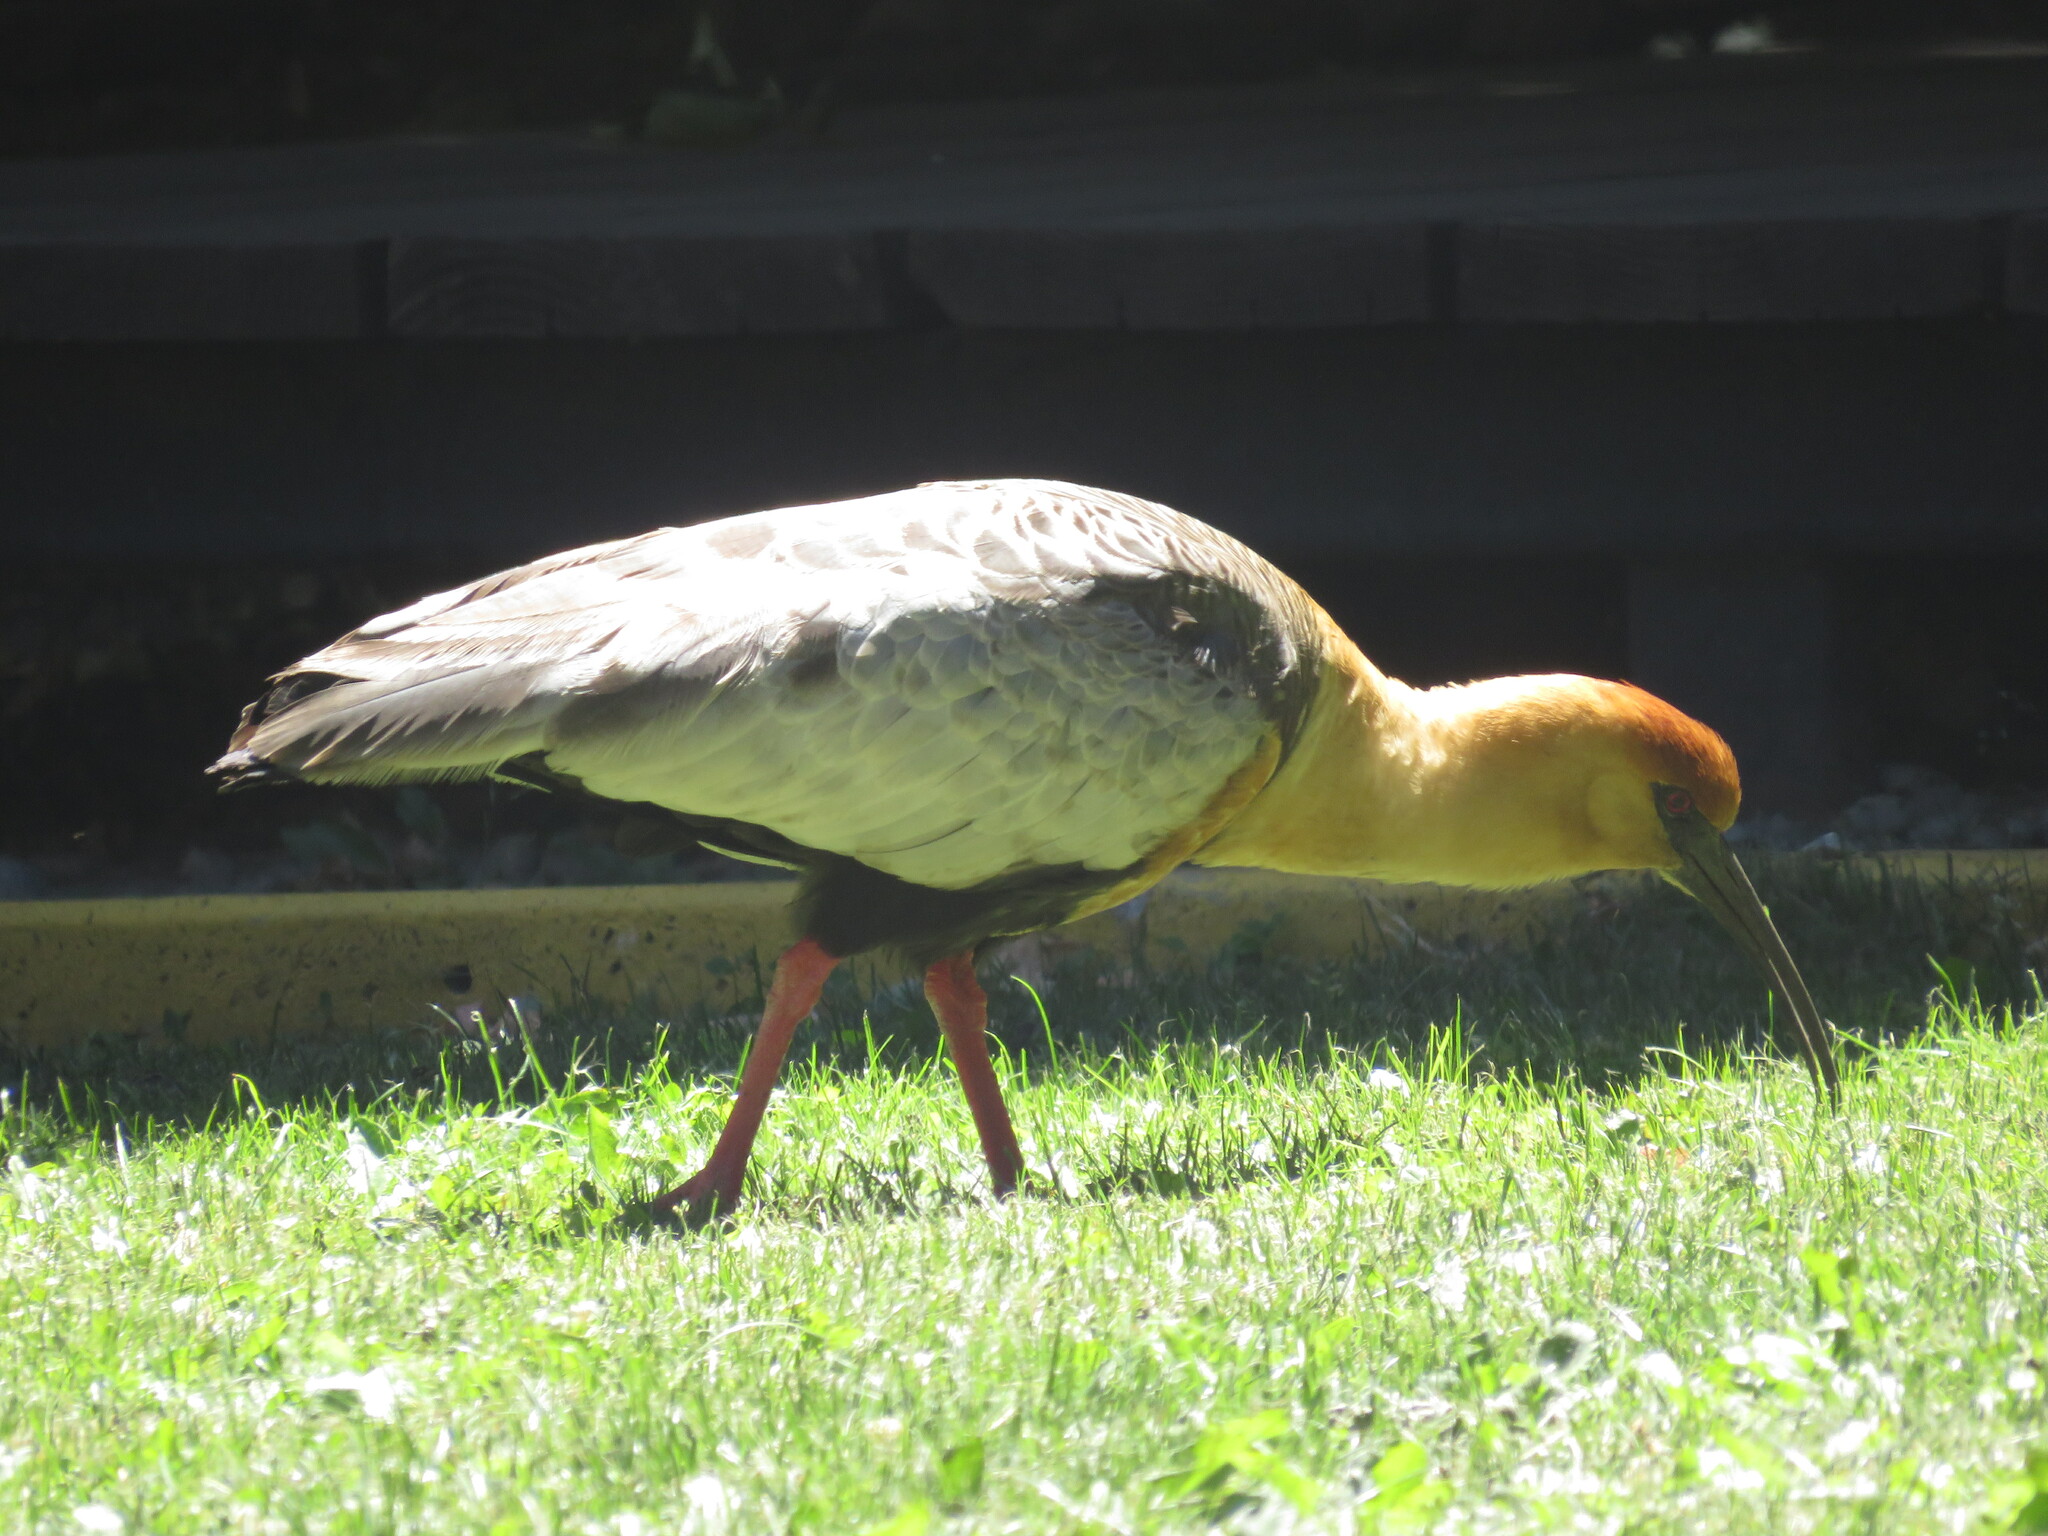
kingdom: Animalia
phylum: Chordata
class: Aves
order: Pelecaniformes
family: Threskiornithidae
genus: Theristicus
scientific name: Theristicus melanopis
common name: Black-faced ibis
